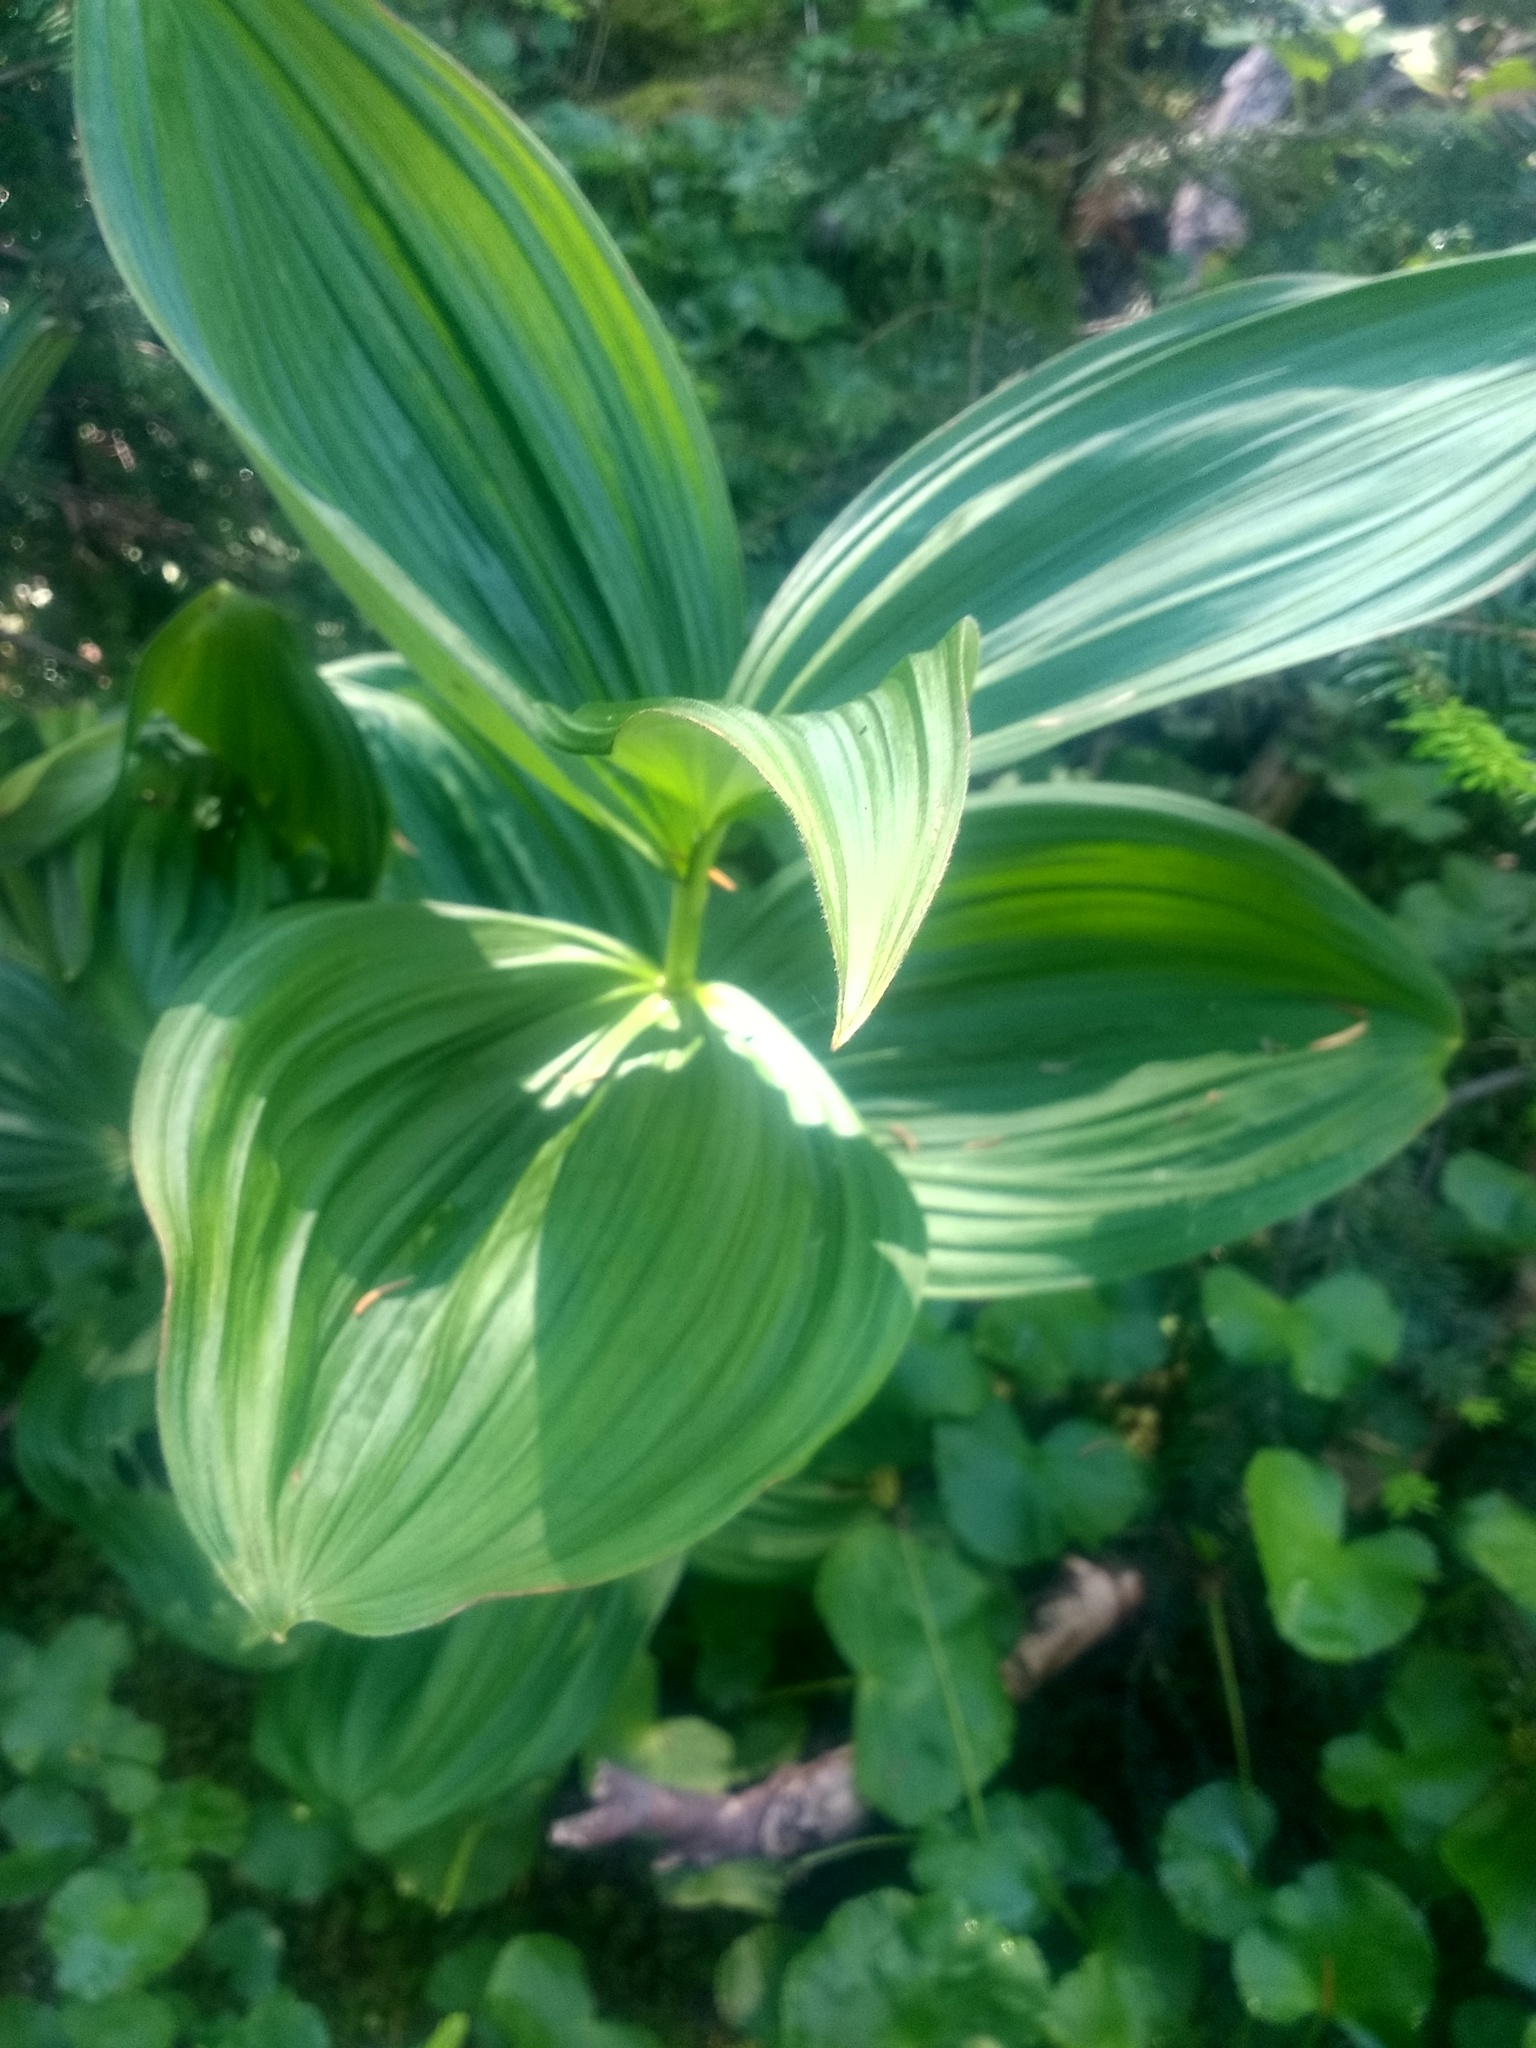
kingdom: Plantae
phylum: Tracheophyta
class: Liliopsida
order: Liliales
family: Melanthiaceae
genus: Veratrum
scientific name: Veratrum viride
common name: American false hellebore
